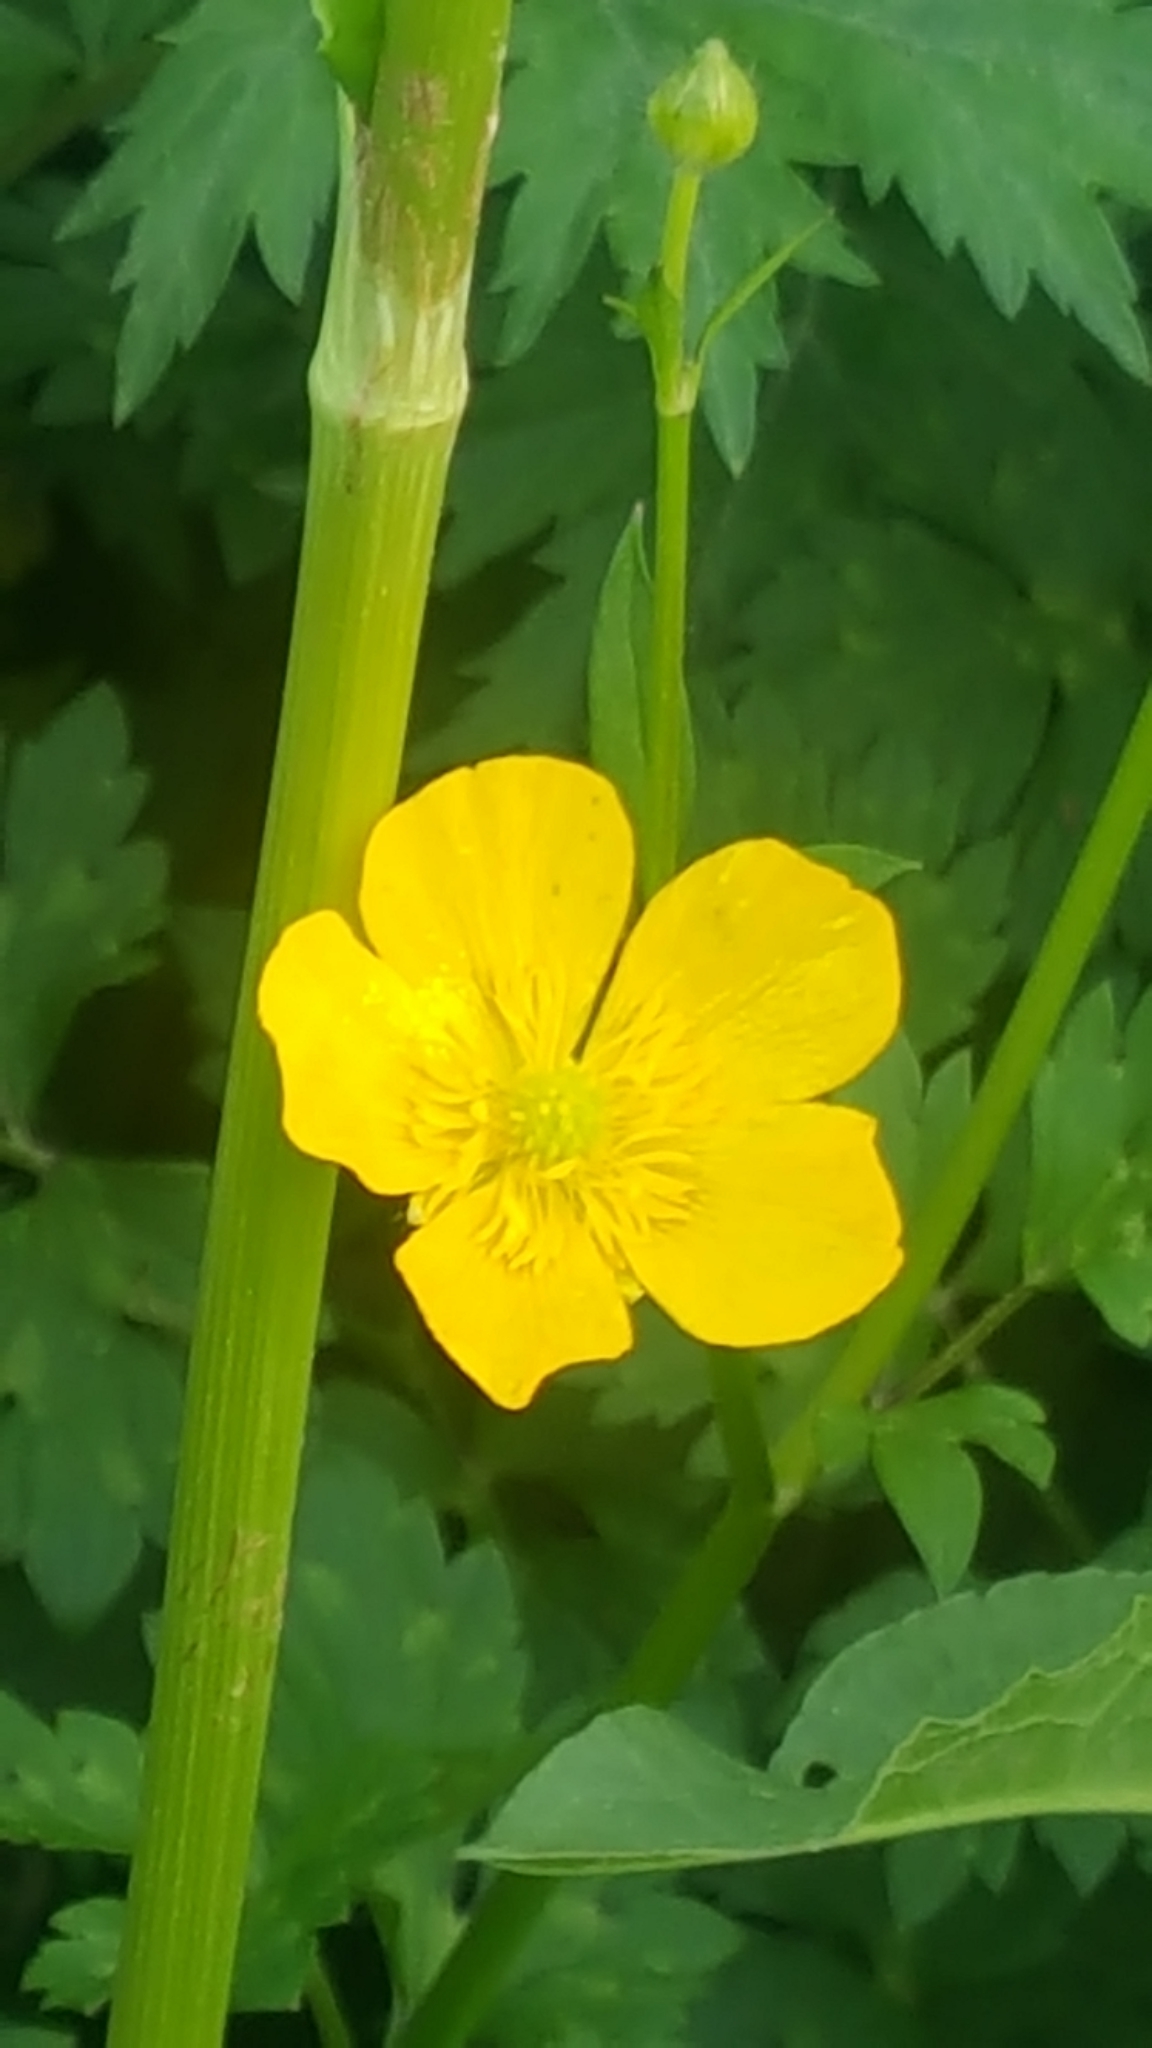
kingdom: Plantae
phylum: Tracheophyta
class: Magnoliopsida
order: Ranunculales
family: Ranunculaceae
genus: Ranunculus
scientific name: Ranunculus repens
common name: Creeping buttercup
